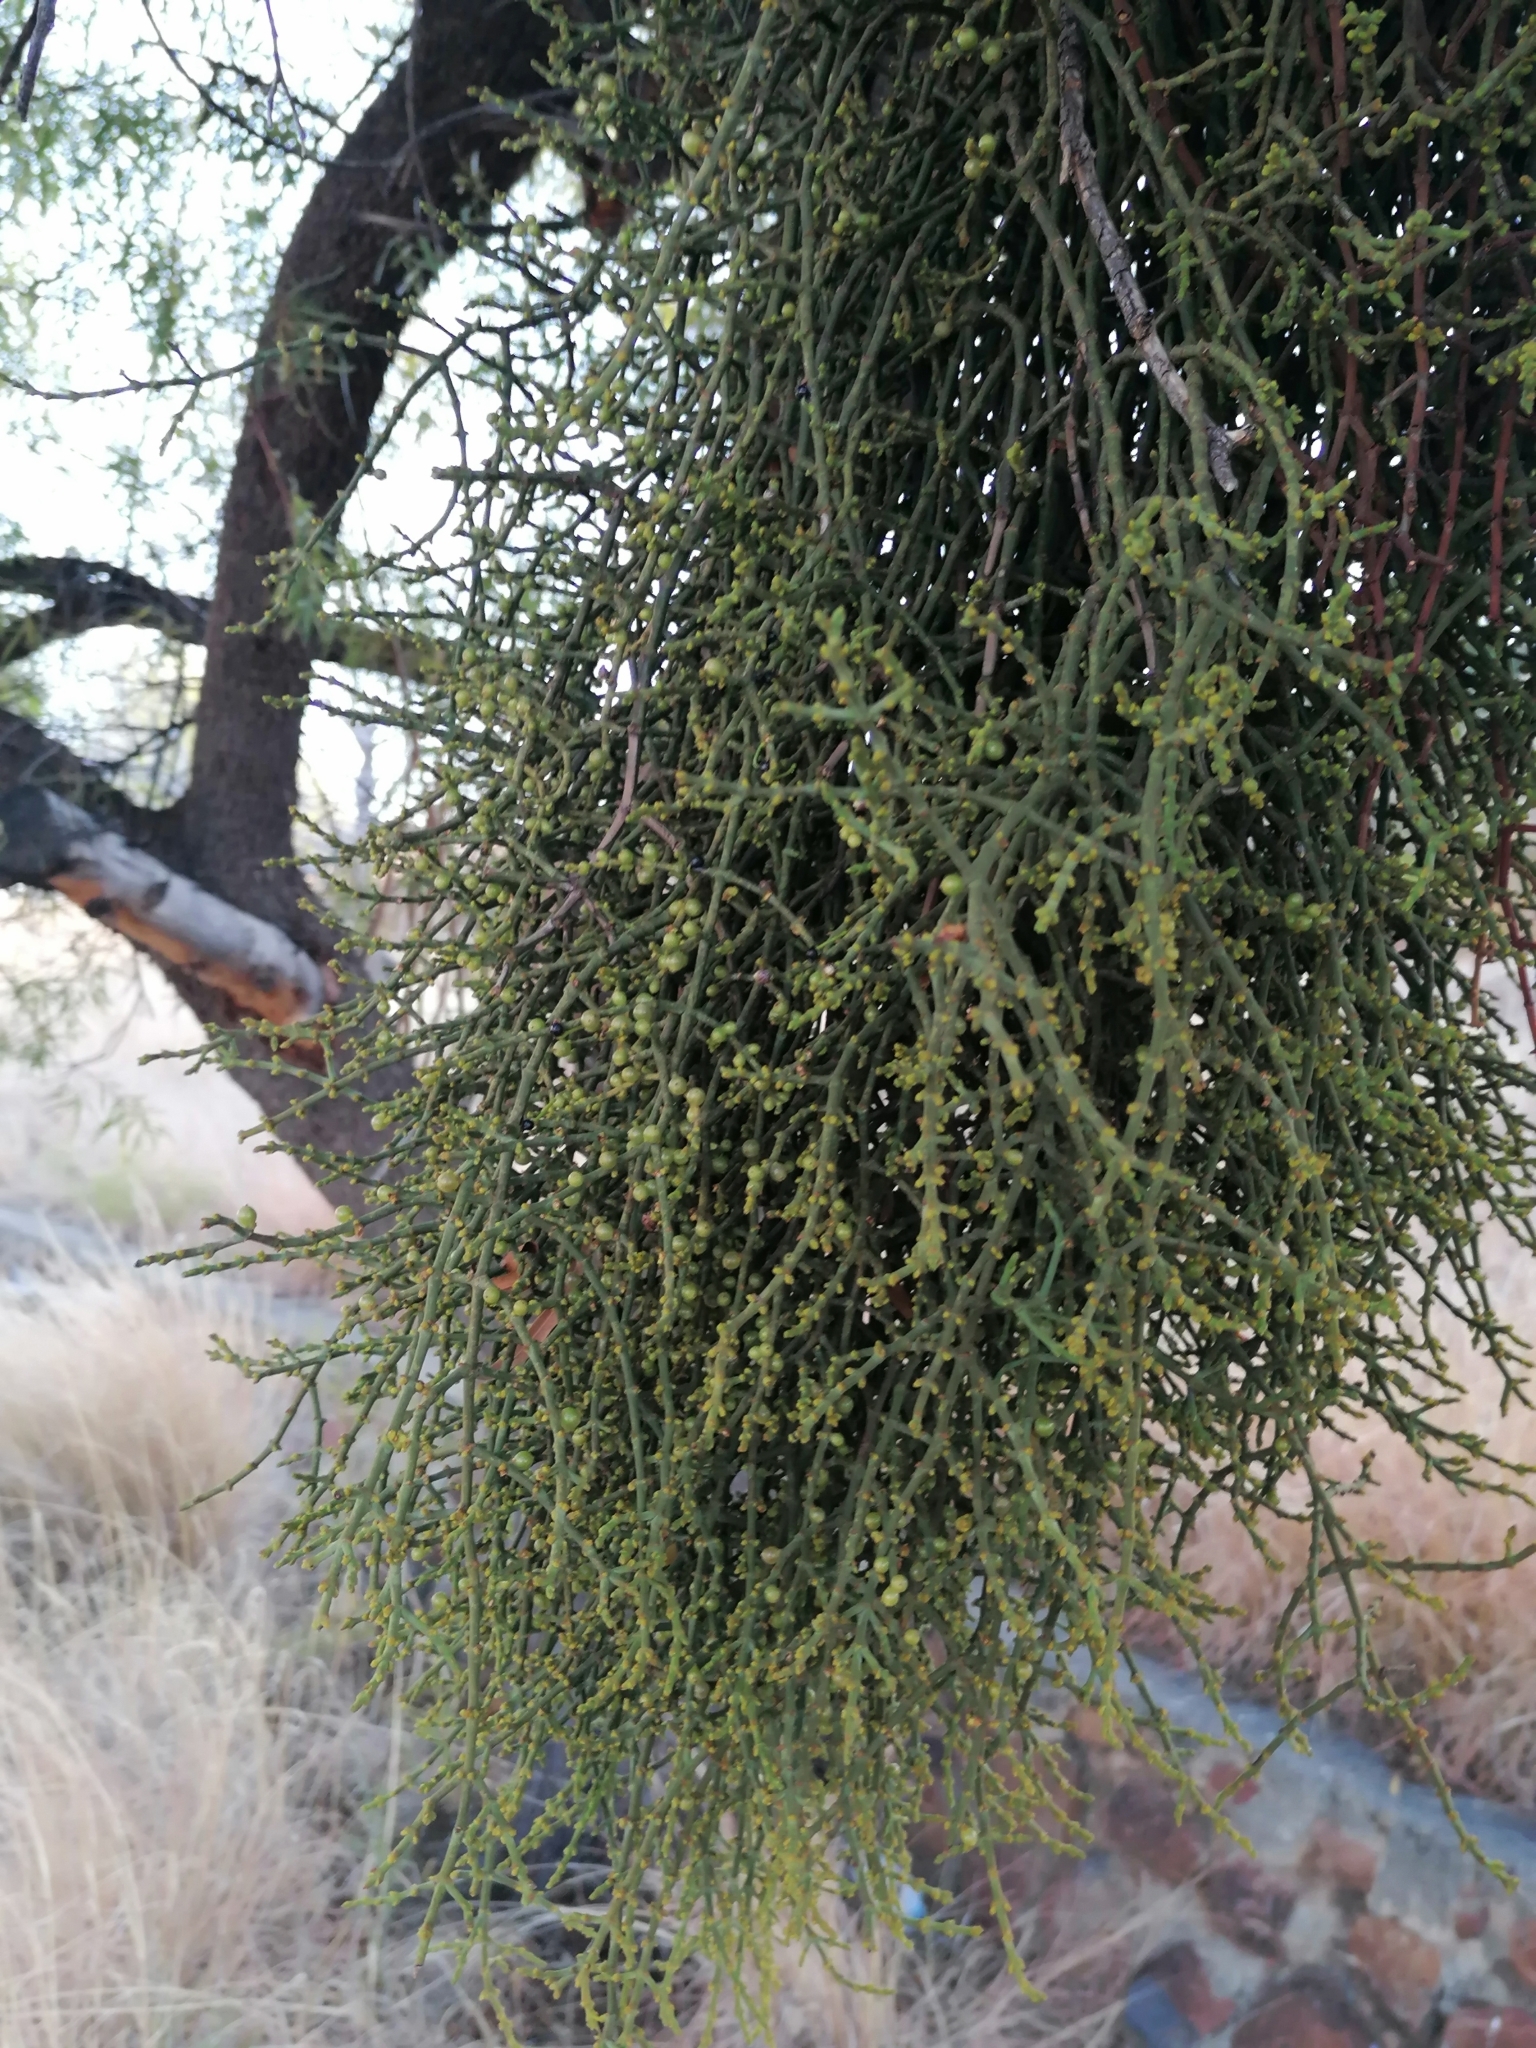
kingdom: Plantae
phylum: Tracheophyta
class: Magnoliopsida
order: Santalales
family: Viscaceae
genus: Viscum
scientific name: Viscum continuum
